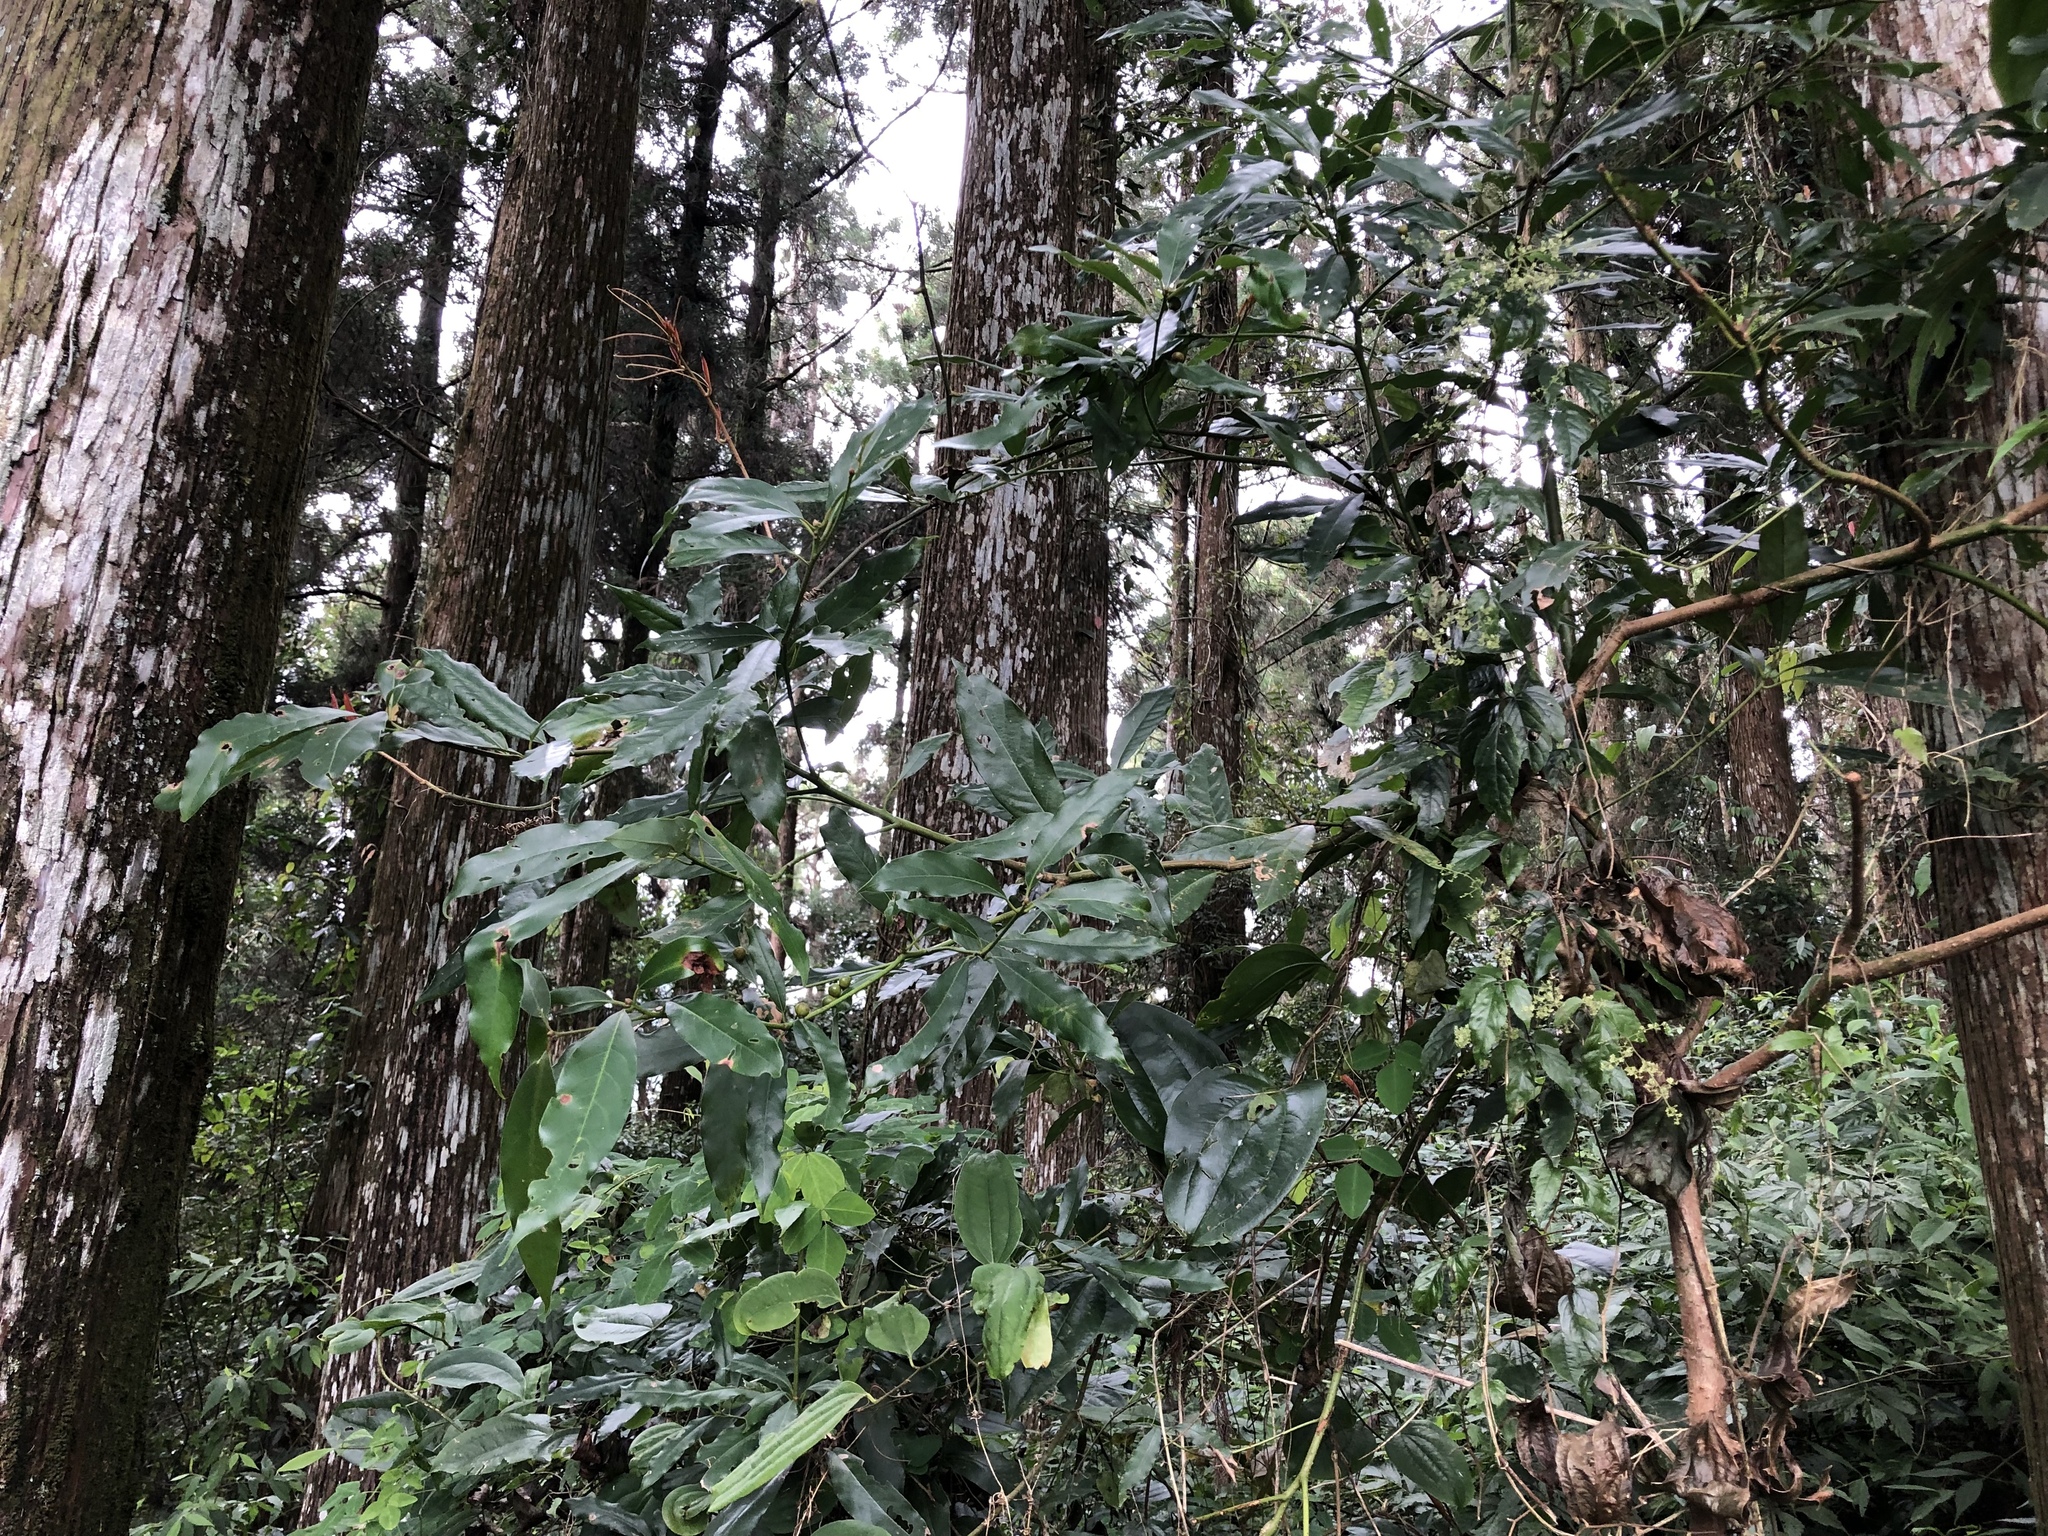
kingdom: Plantae
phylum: Tracheophyta
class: Magnoliopsida
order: Laurales
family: Lauraceae
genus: Machilus
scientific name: Machilus thunbergii
